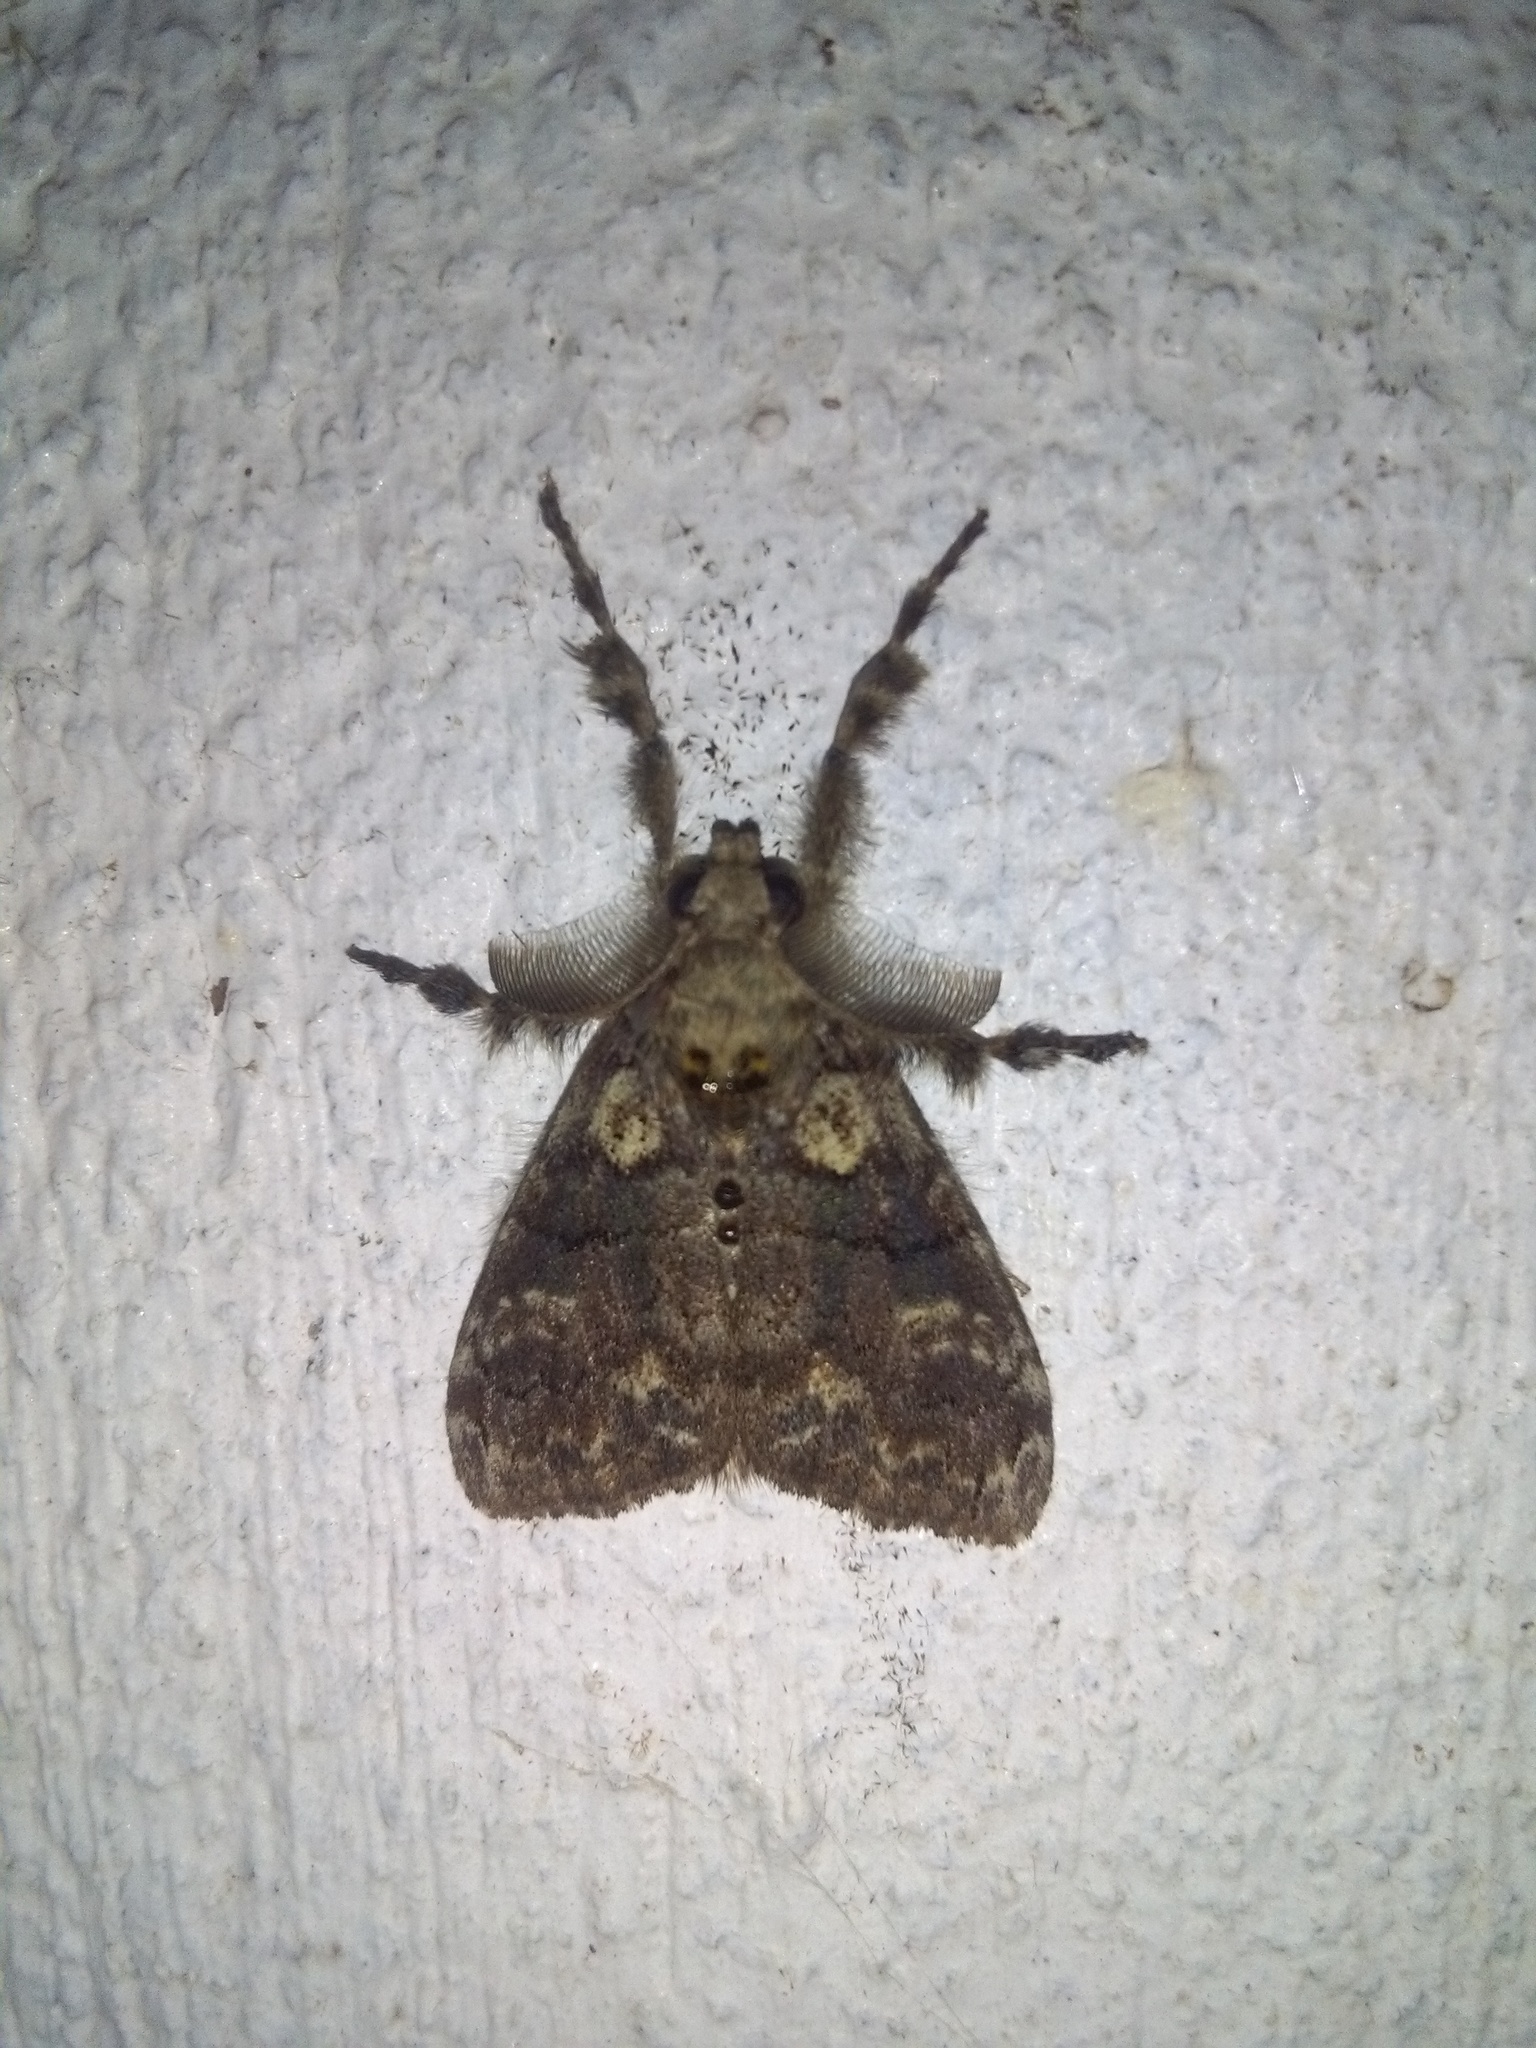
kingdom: Animalia
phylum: Arthropoda
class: Insecta
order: Lepidoptera
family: Erebidae
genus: Olene
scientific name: Olene dudgeoni
